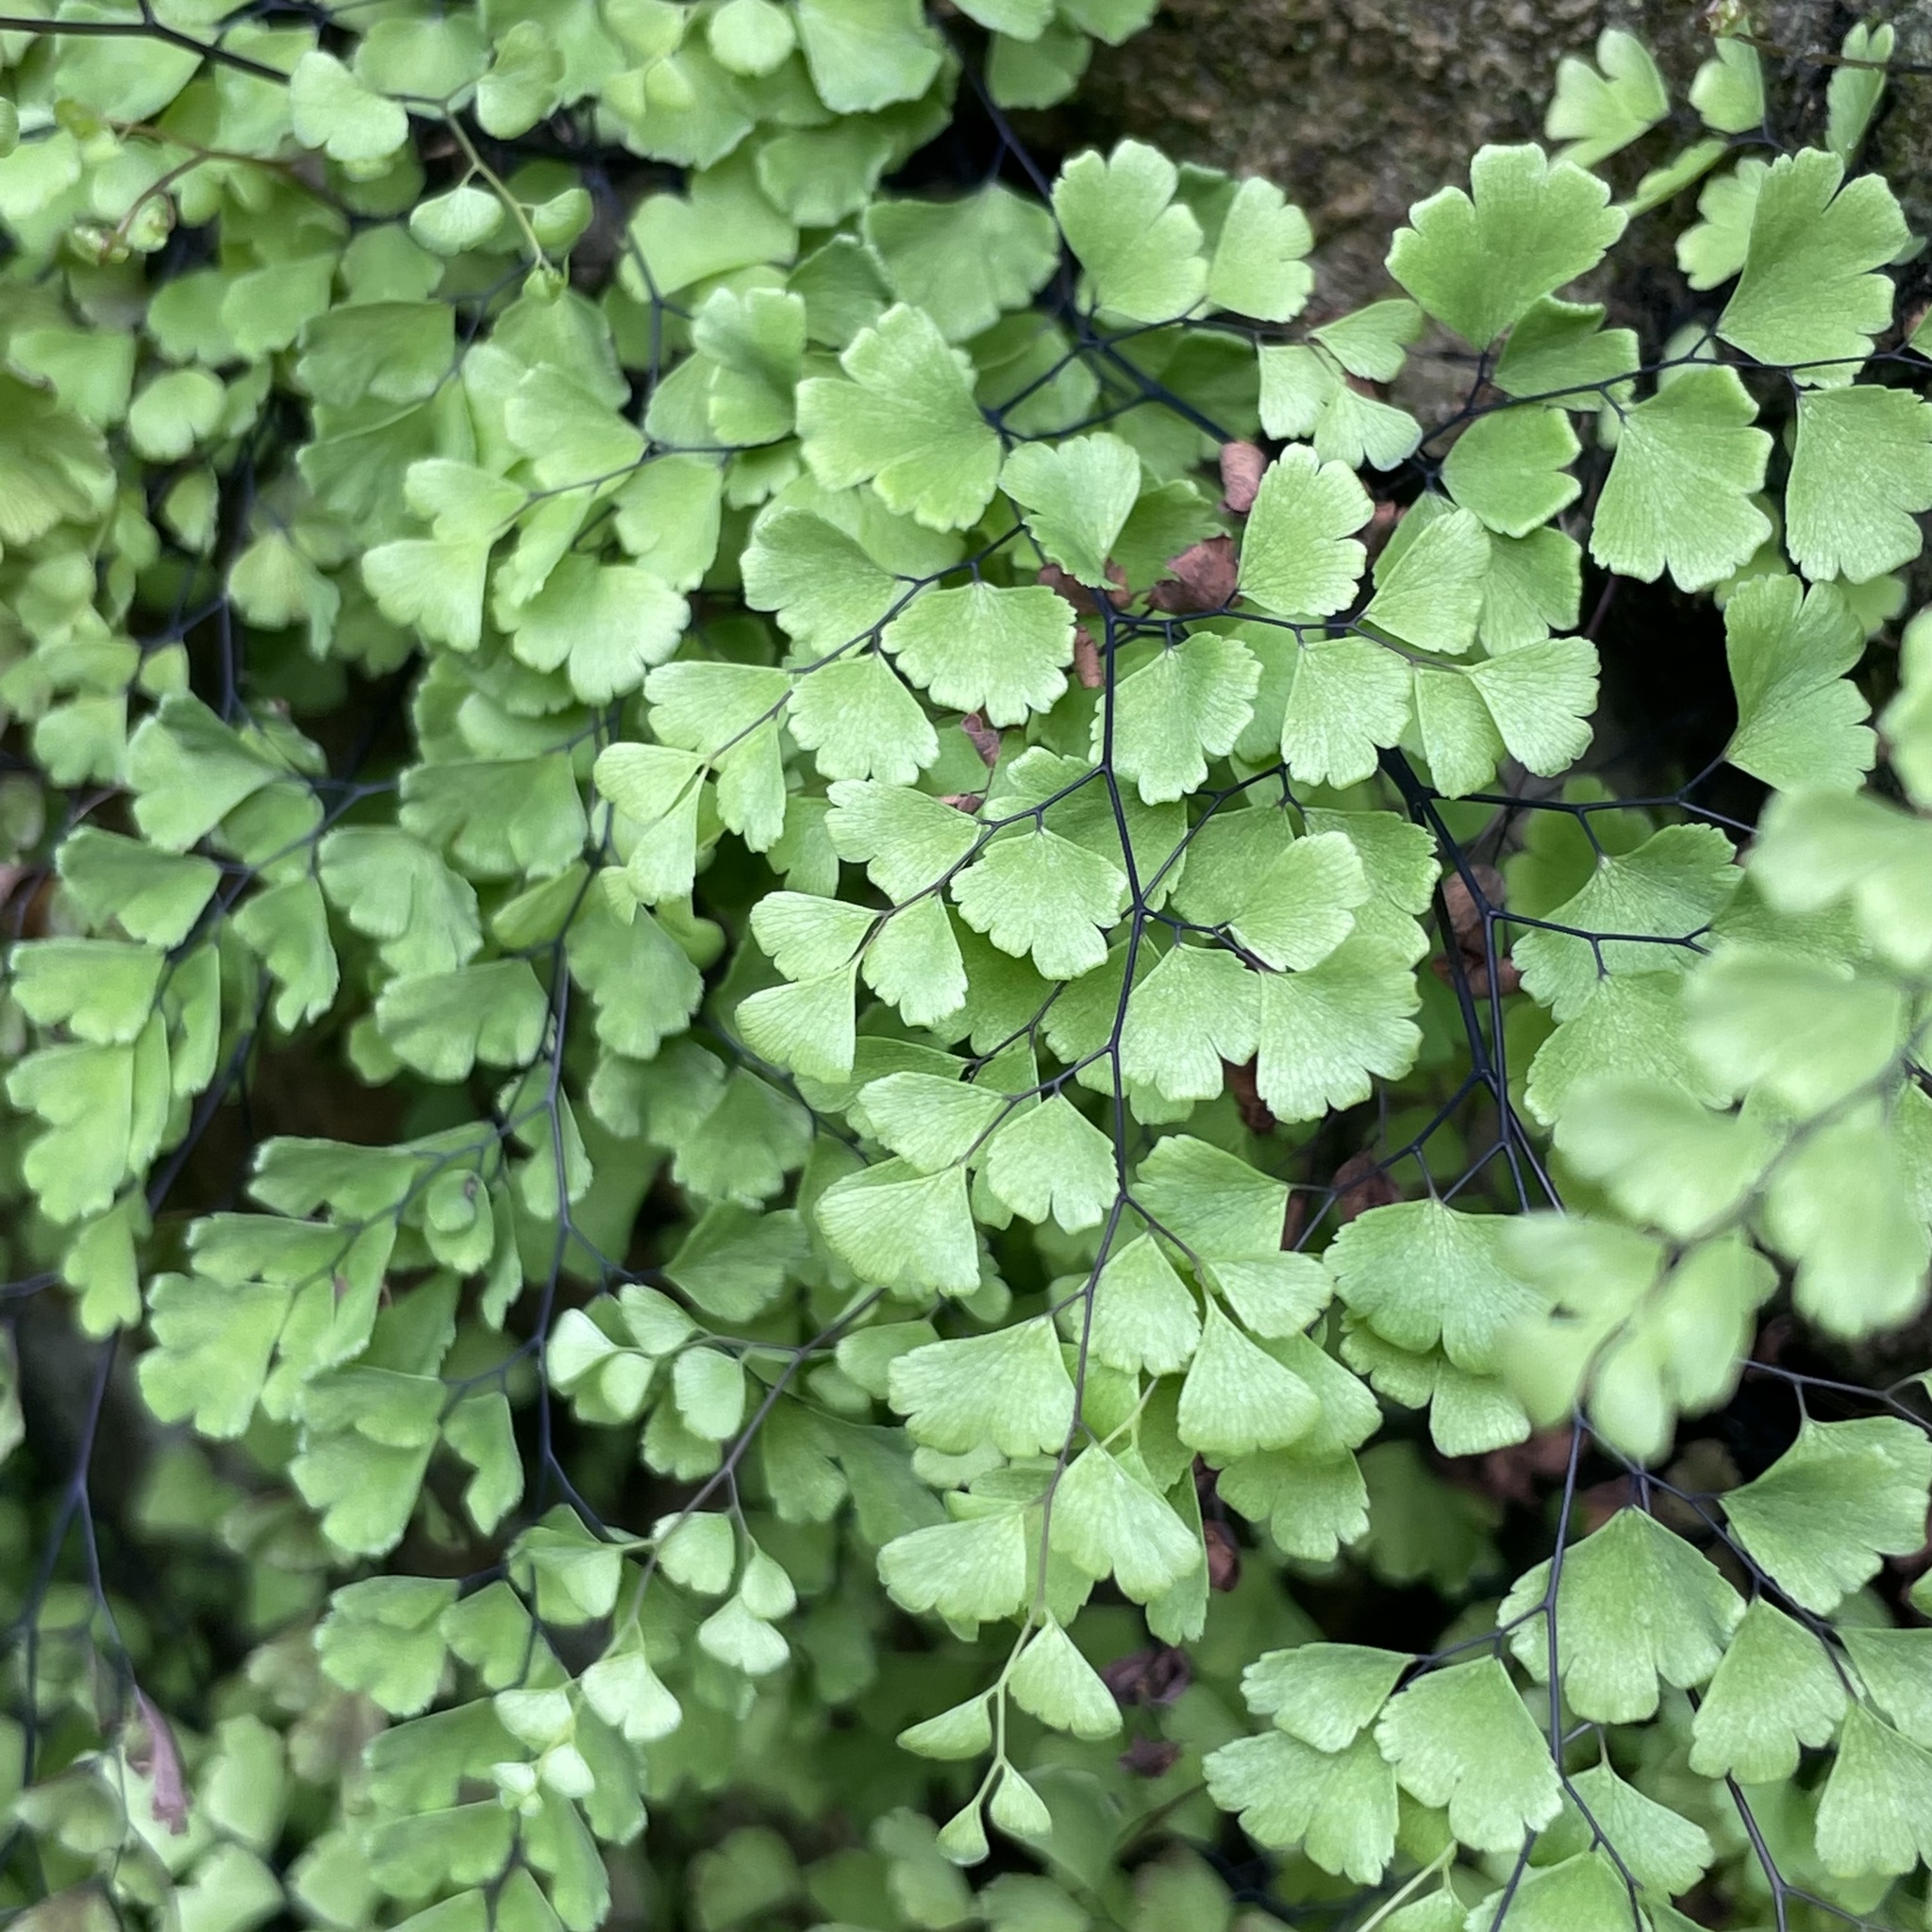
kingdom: Plantae
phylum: Tracheophyta
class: Polypodiopsida
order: Polypodiales
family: Pteridaceae
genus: Adiantum
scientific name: Adiantum capillus-veneris
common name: Maidenhair fern
